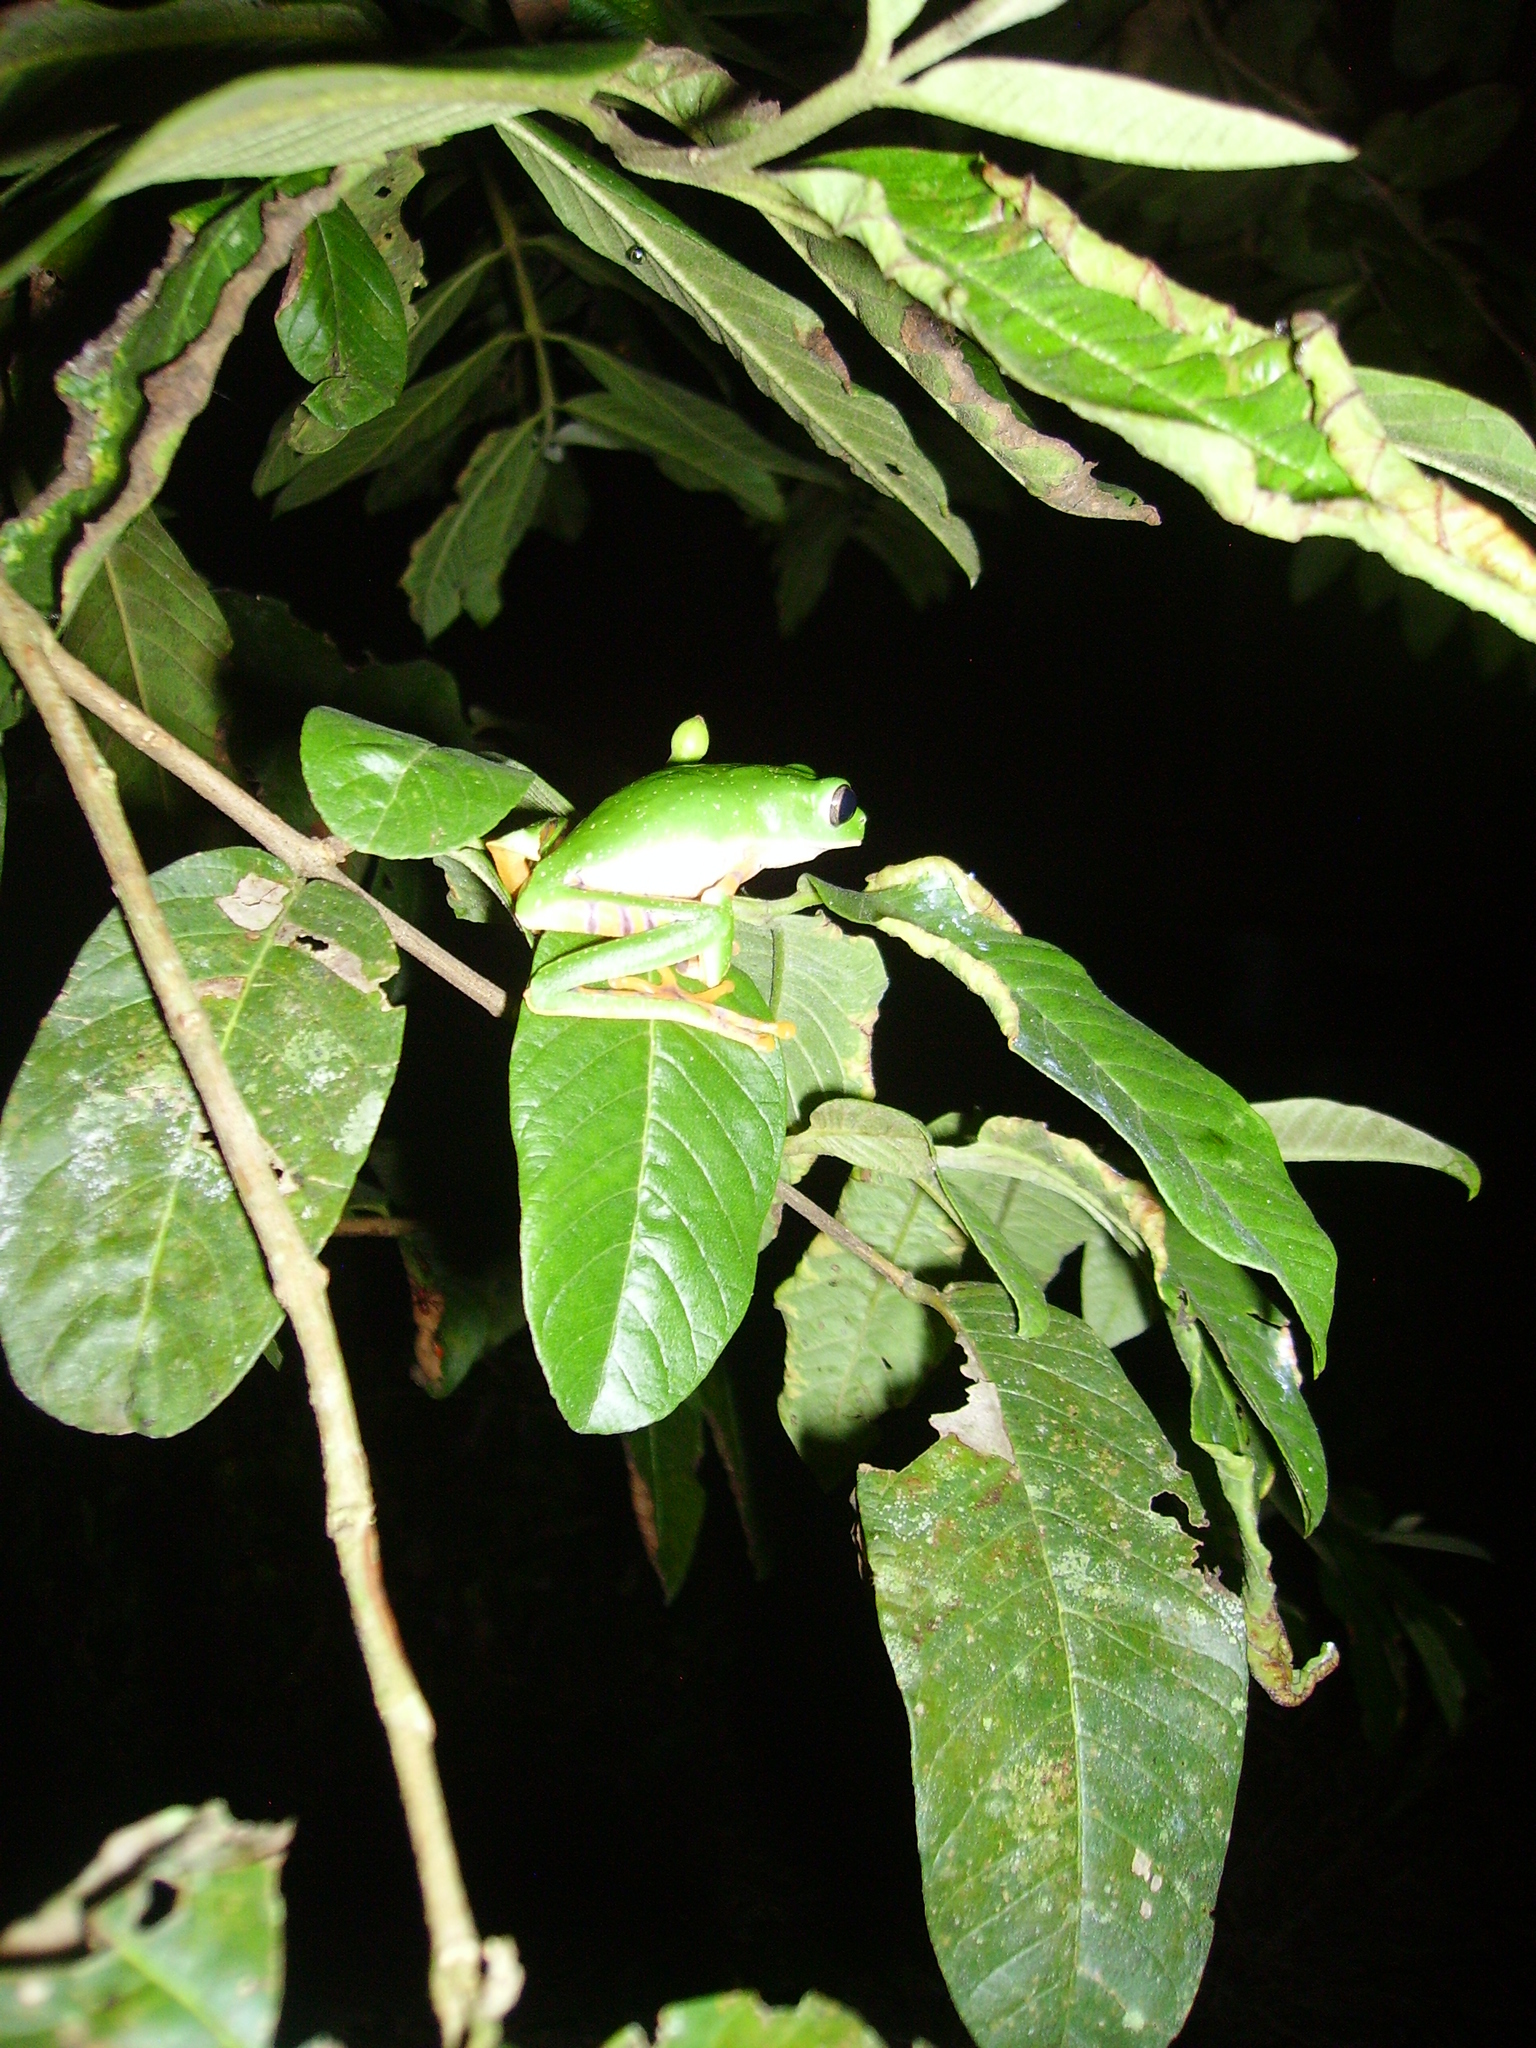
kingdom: Animalia
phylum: Chordata
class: Amphibia
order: Anura
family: Phyllomedusidae
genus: Callimedusa
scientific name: Callimedusa tomopterna
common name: Tiger-striped leaf frog
